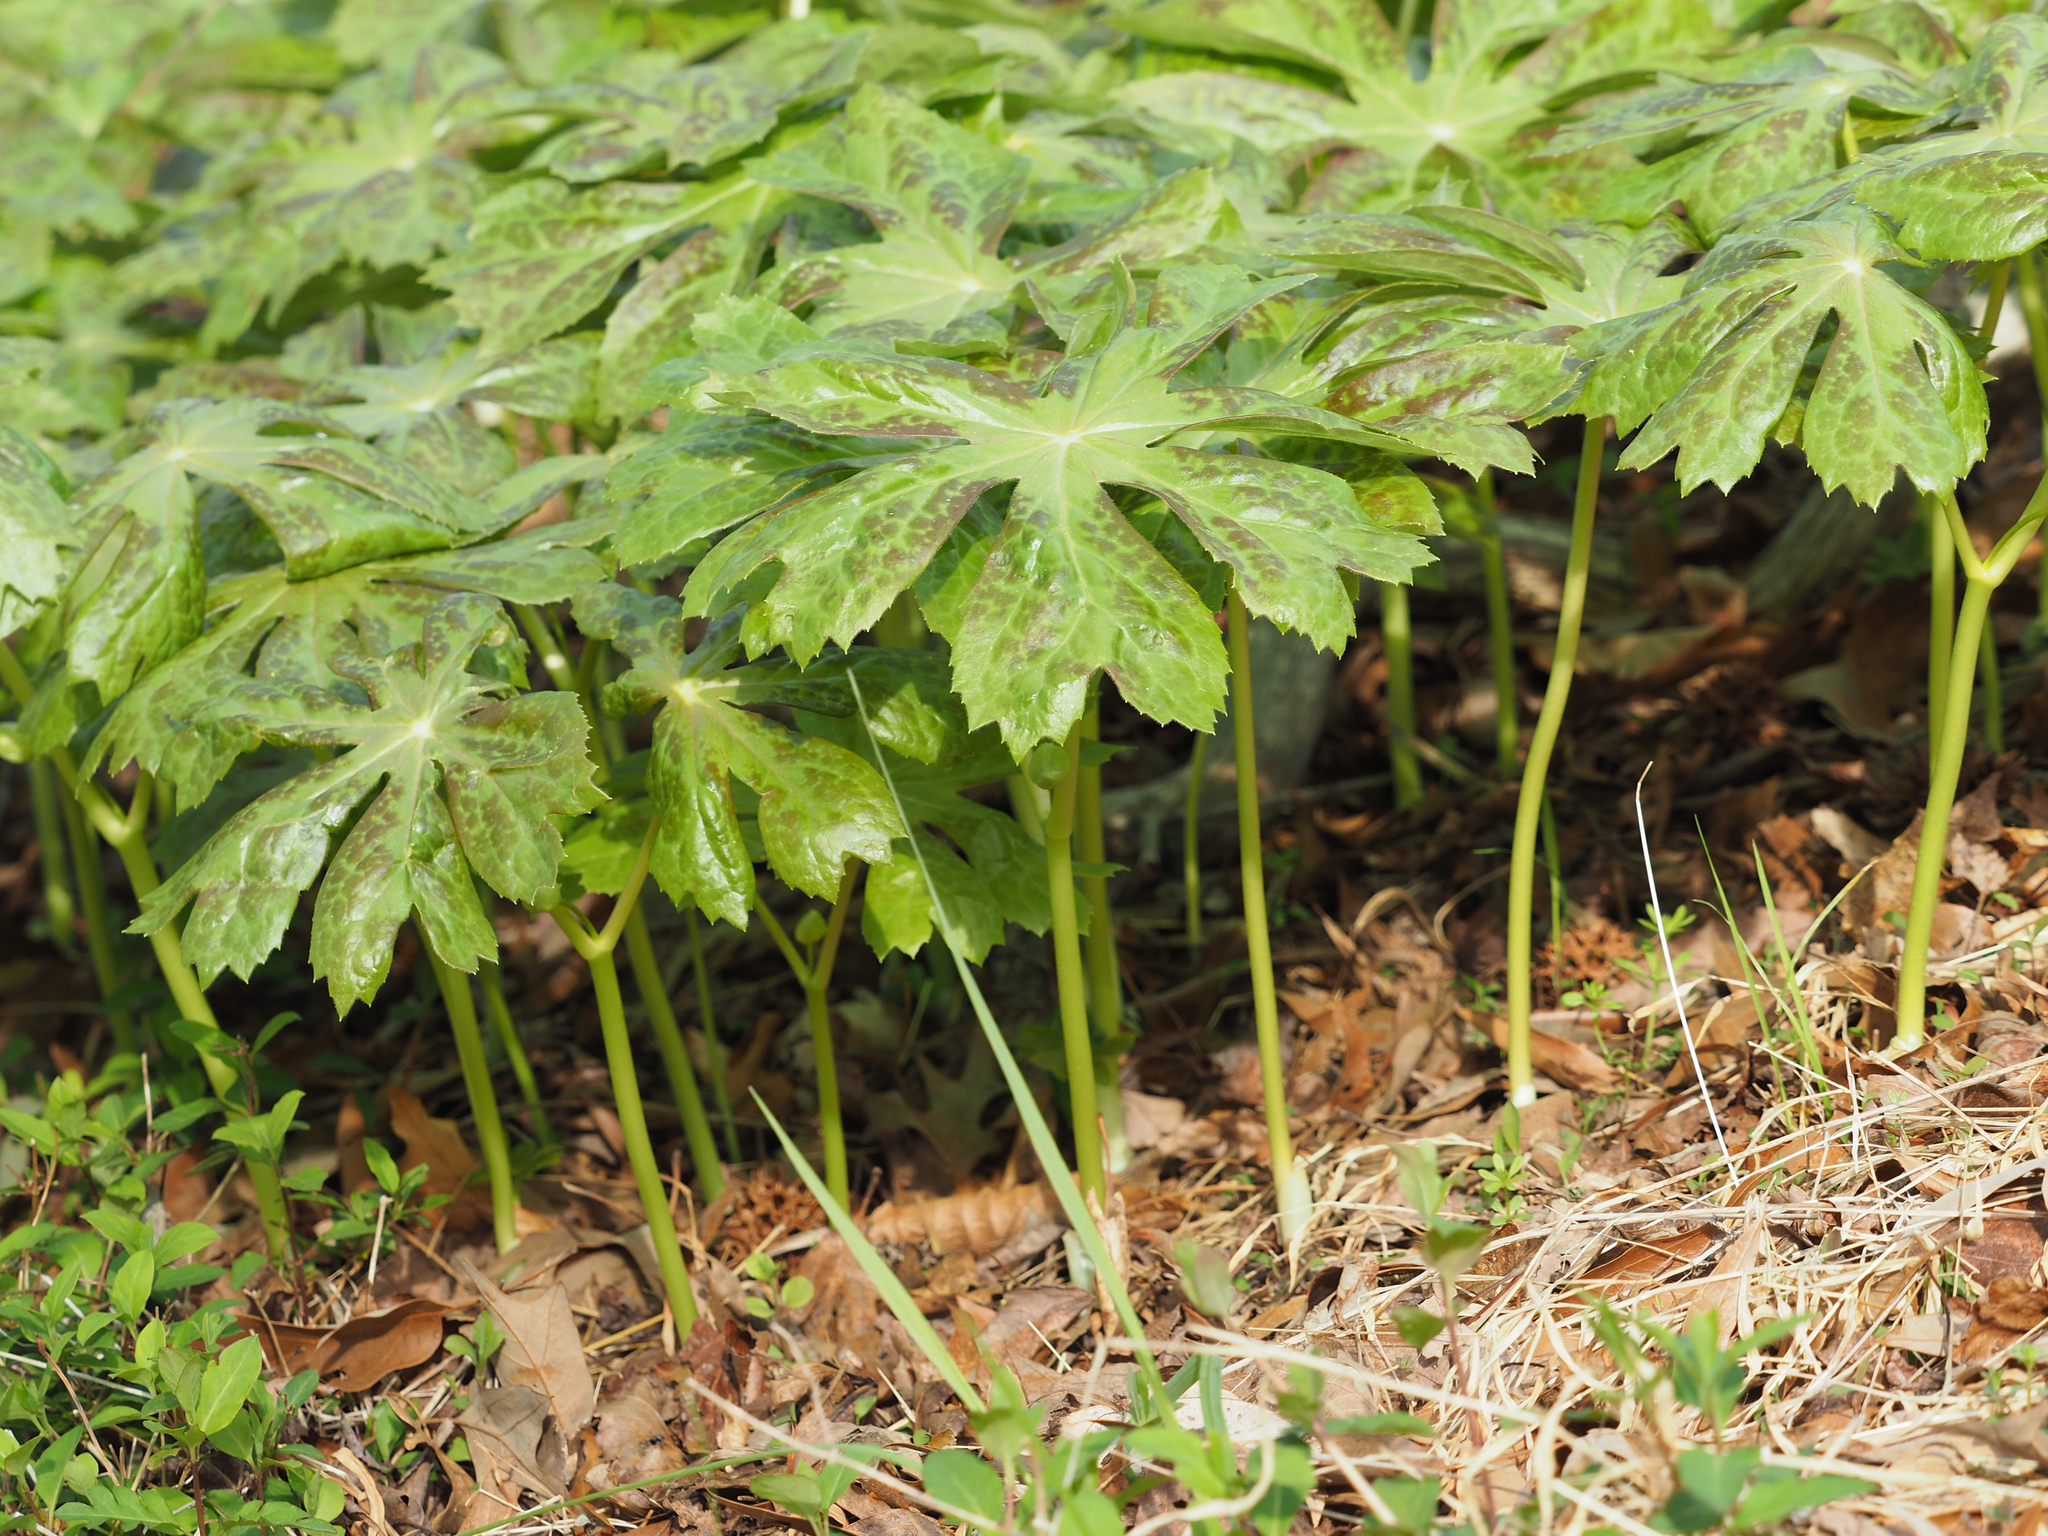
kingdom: Plantae
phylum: Tracheophyta
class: Magnoliopsida
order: Ranunculales
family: Berberidaceae
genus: Podophyllum
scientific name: Podophyllum peltatum
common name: Wild mandrake
